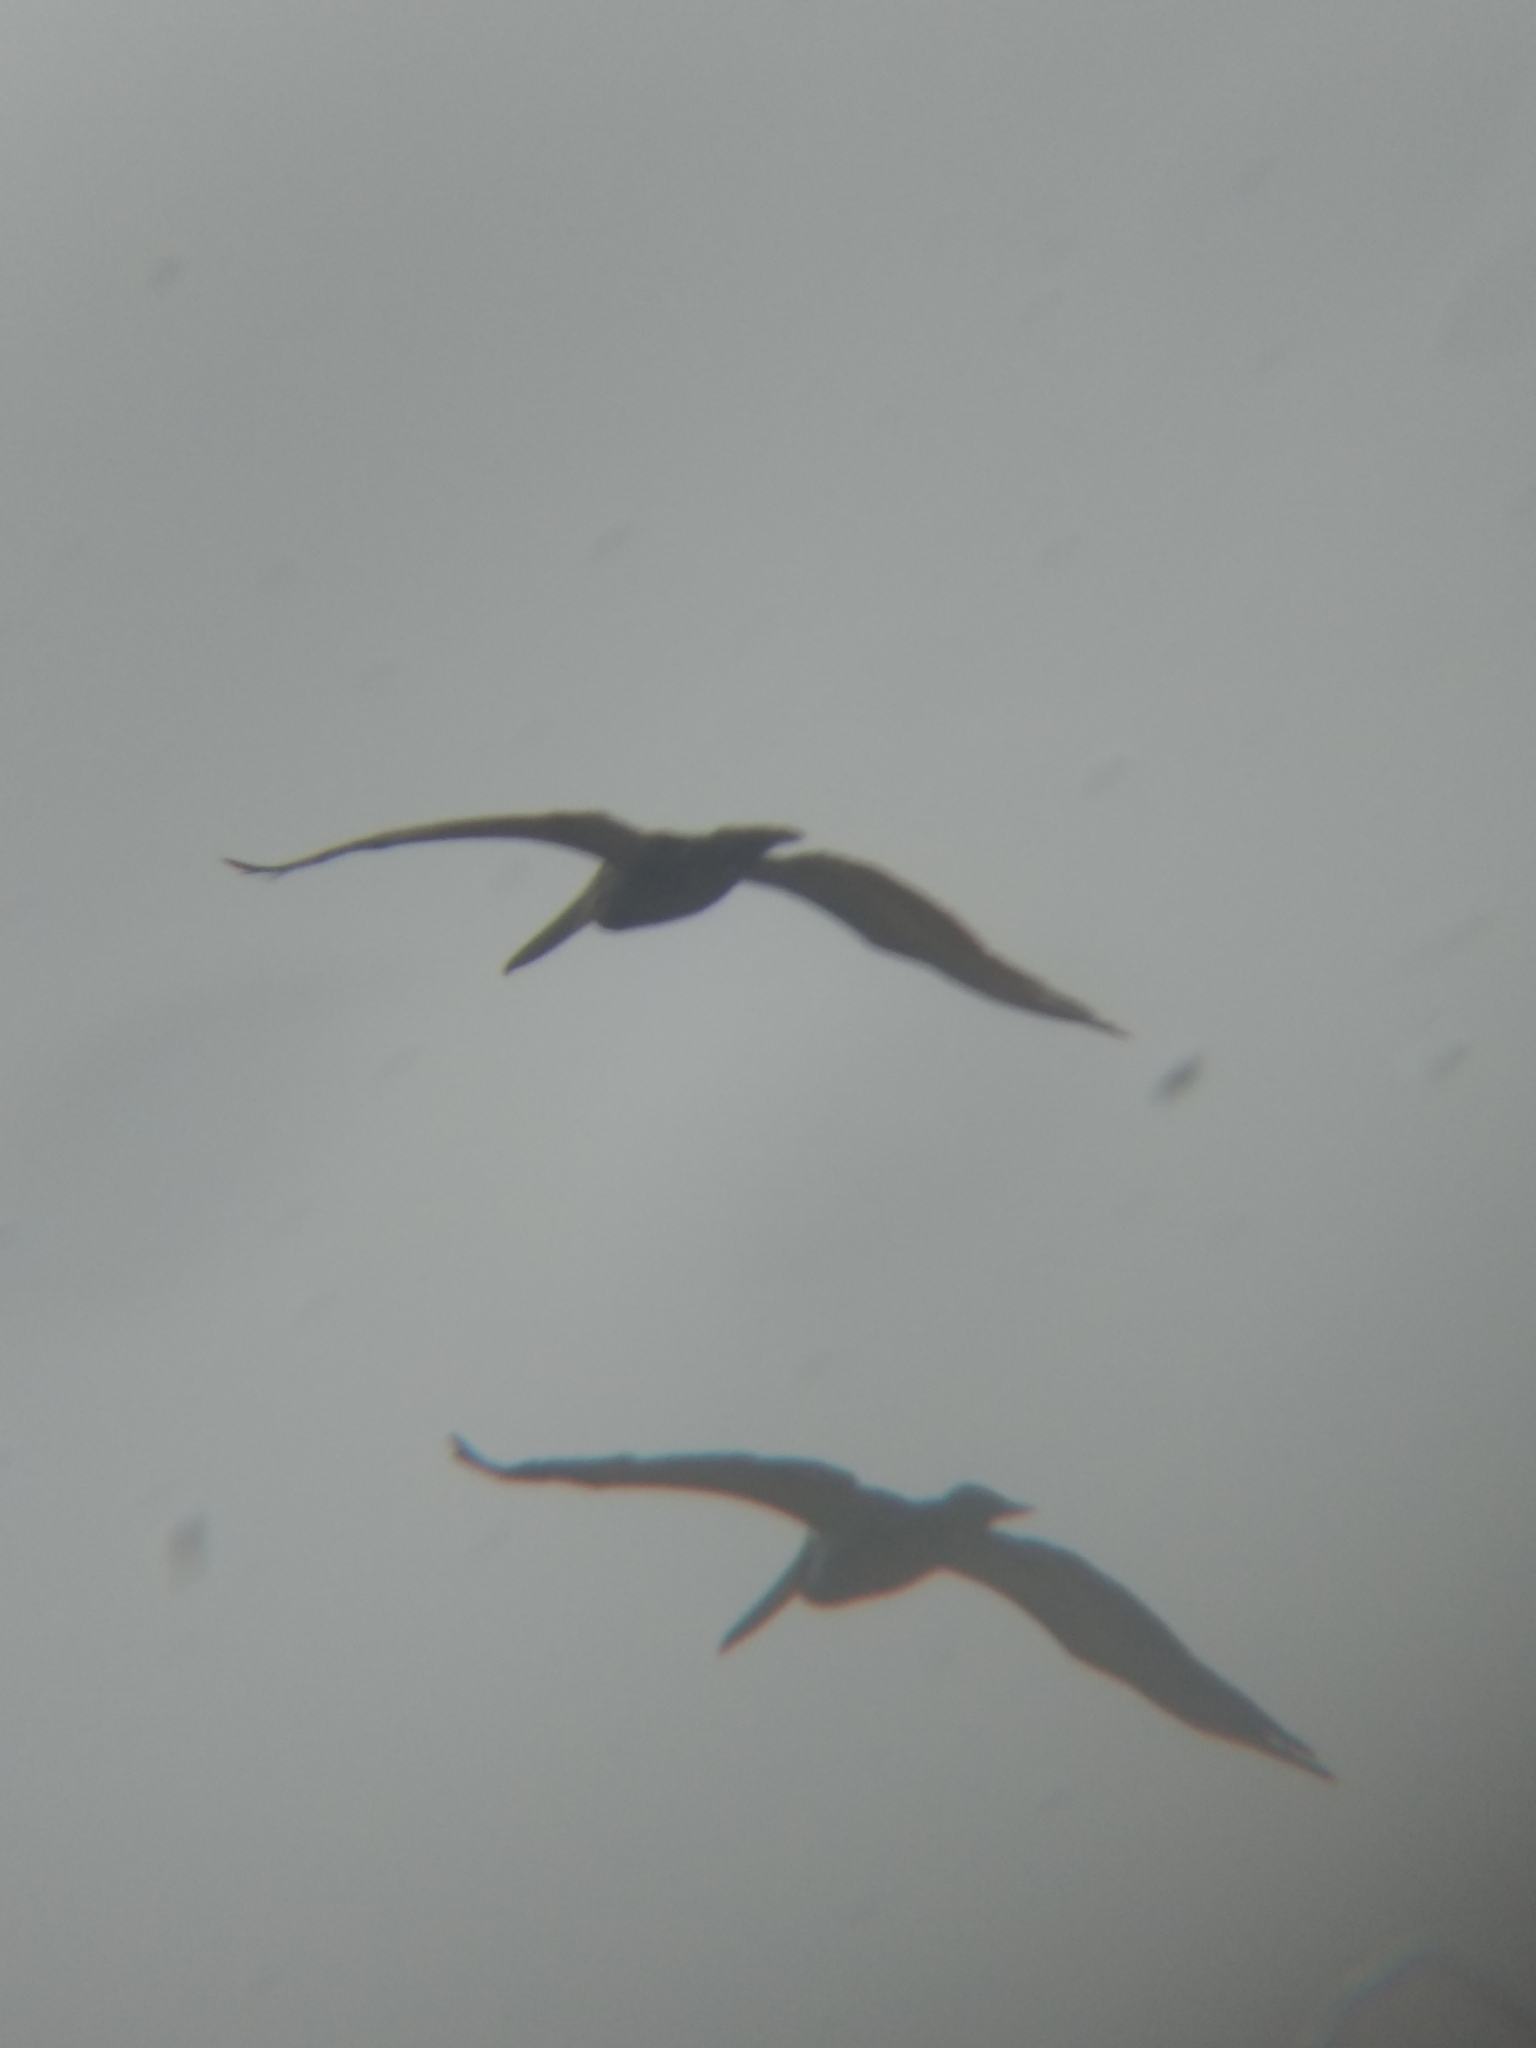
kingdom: Animalia
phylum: Chordata
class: Aves
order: Pelecaniformes
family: Pelecanidae
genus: Pelecanus
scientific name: Pelecanus occidentalis
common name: Brown pelican
